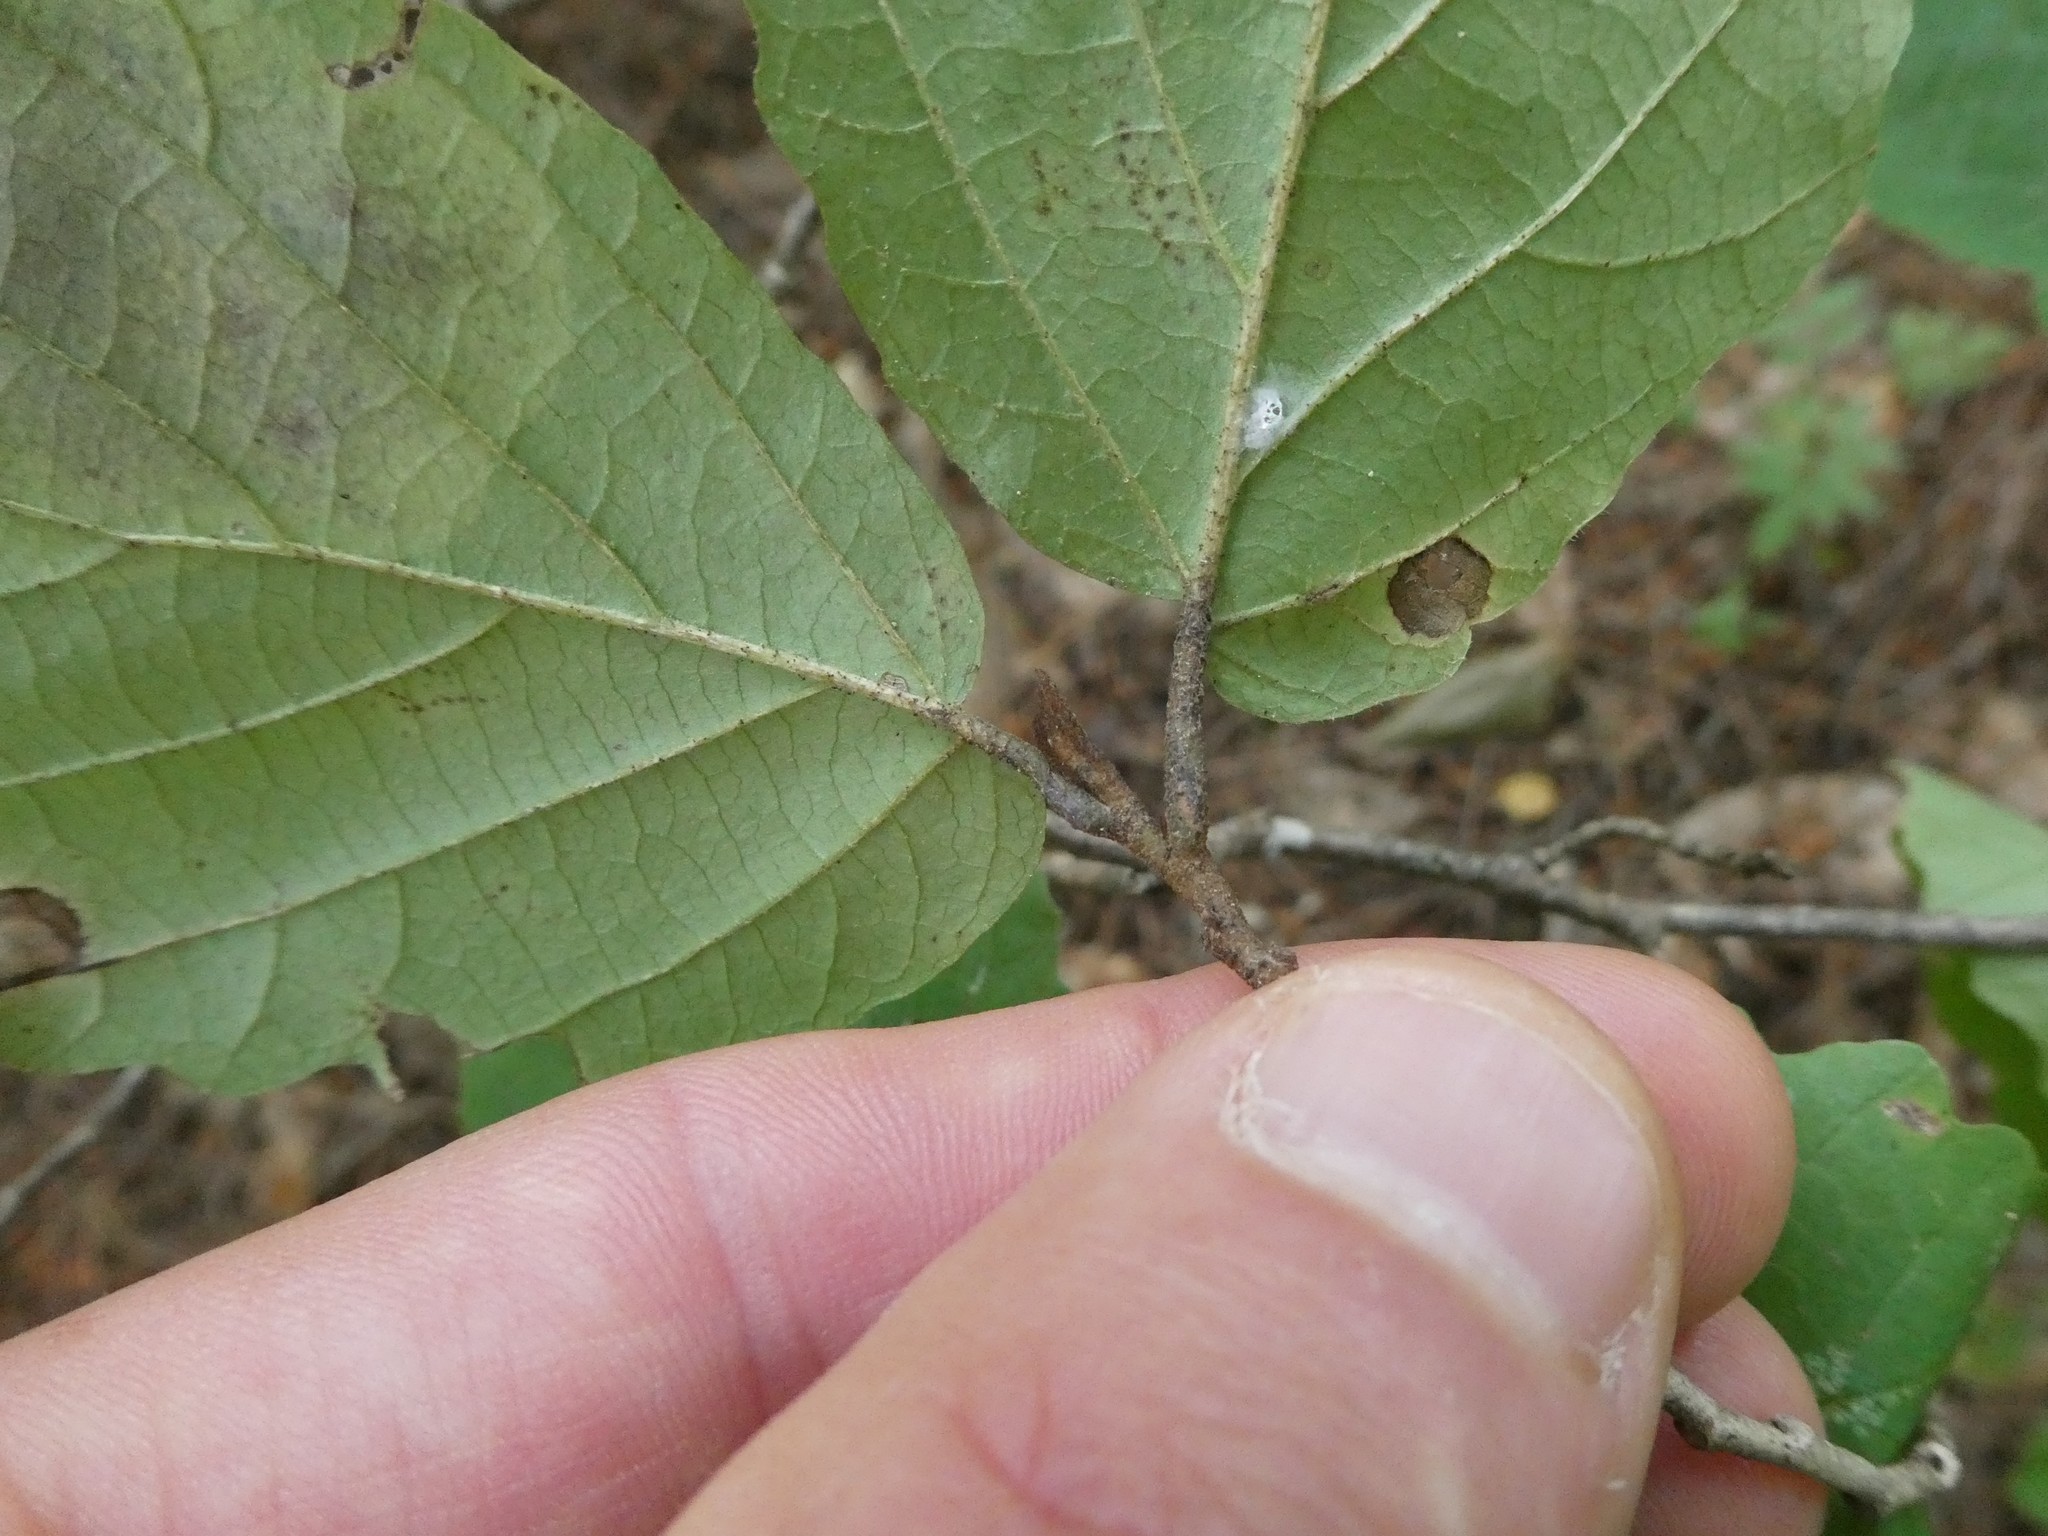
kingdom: Plantae
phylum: Tracheophyta
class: Magnoliopsida
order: Saxifragales
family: Hamamelidaceae
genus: Hamamelis
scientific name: Hamamelis virginiana
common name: Witch-hazel
